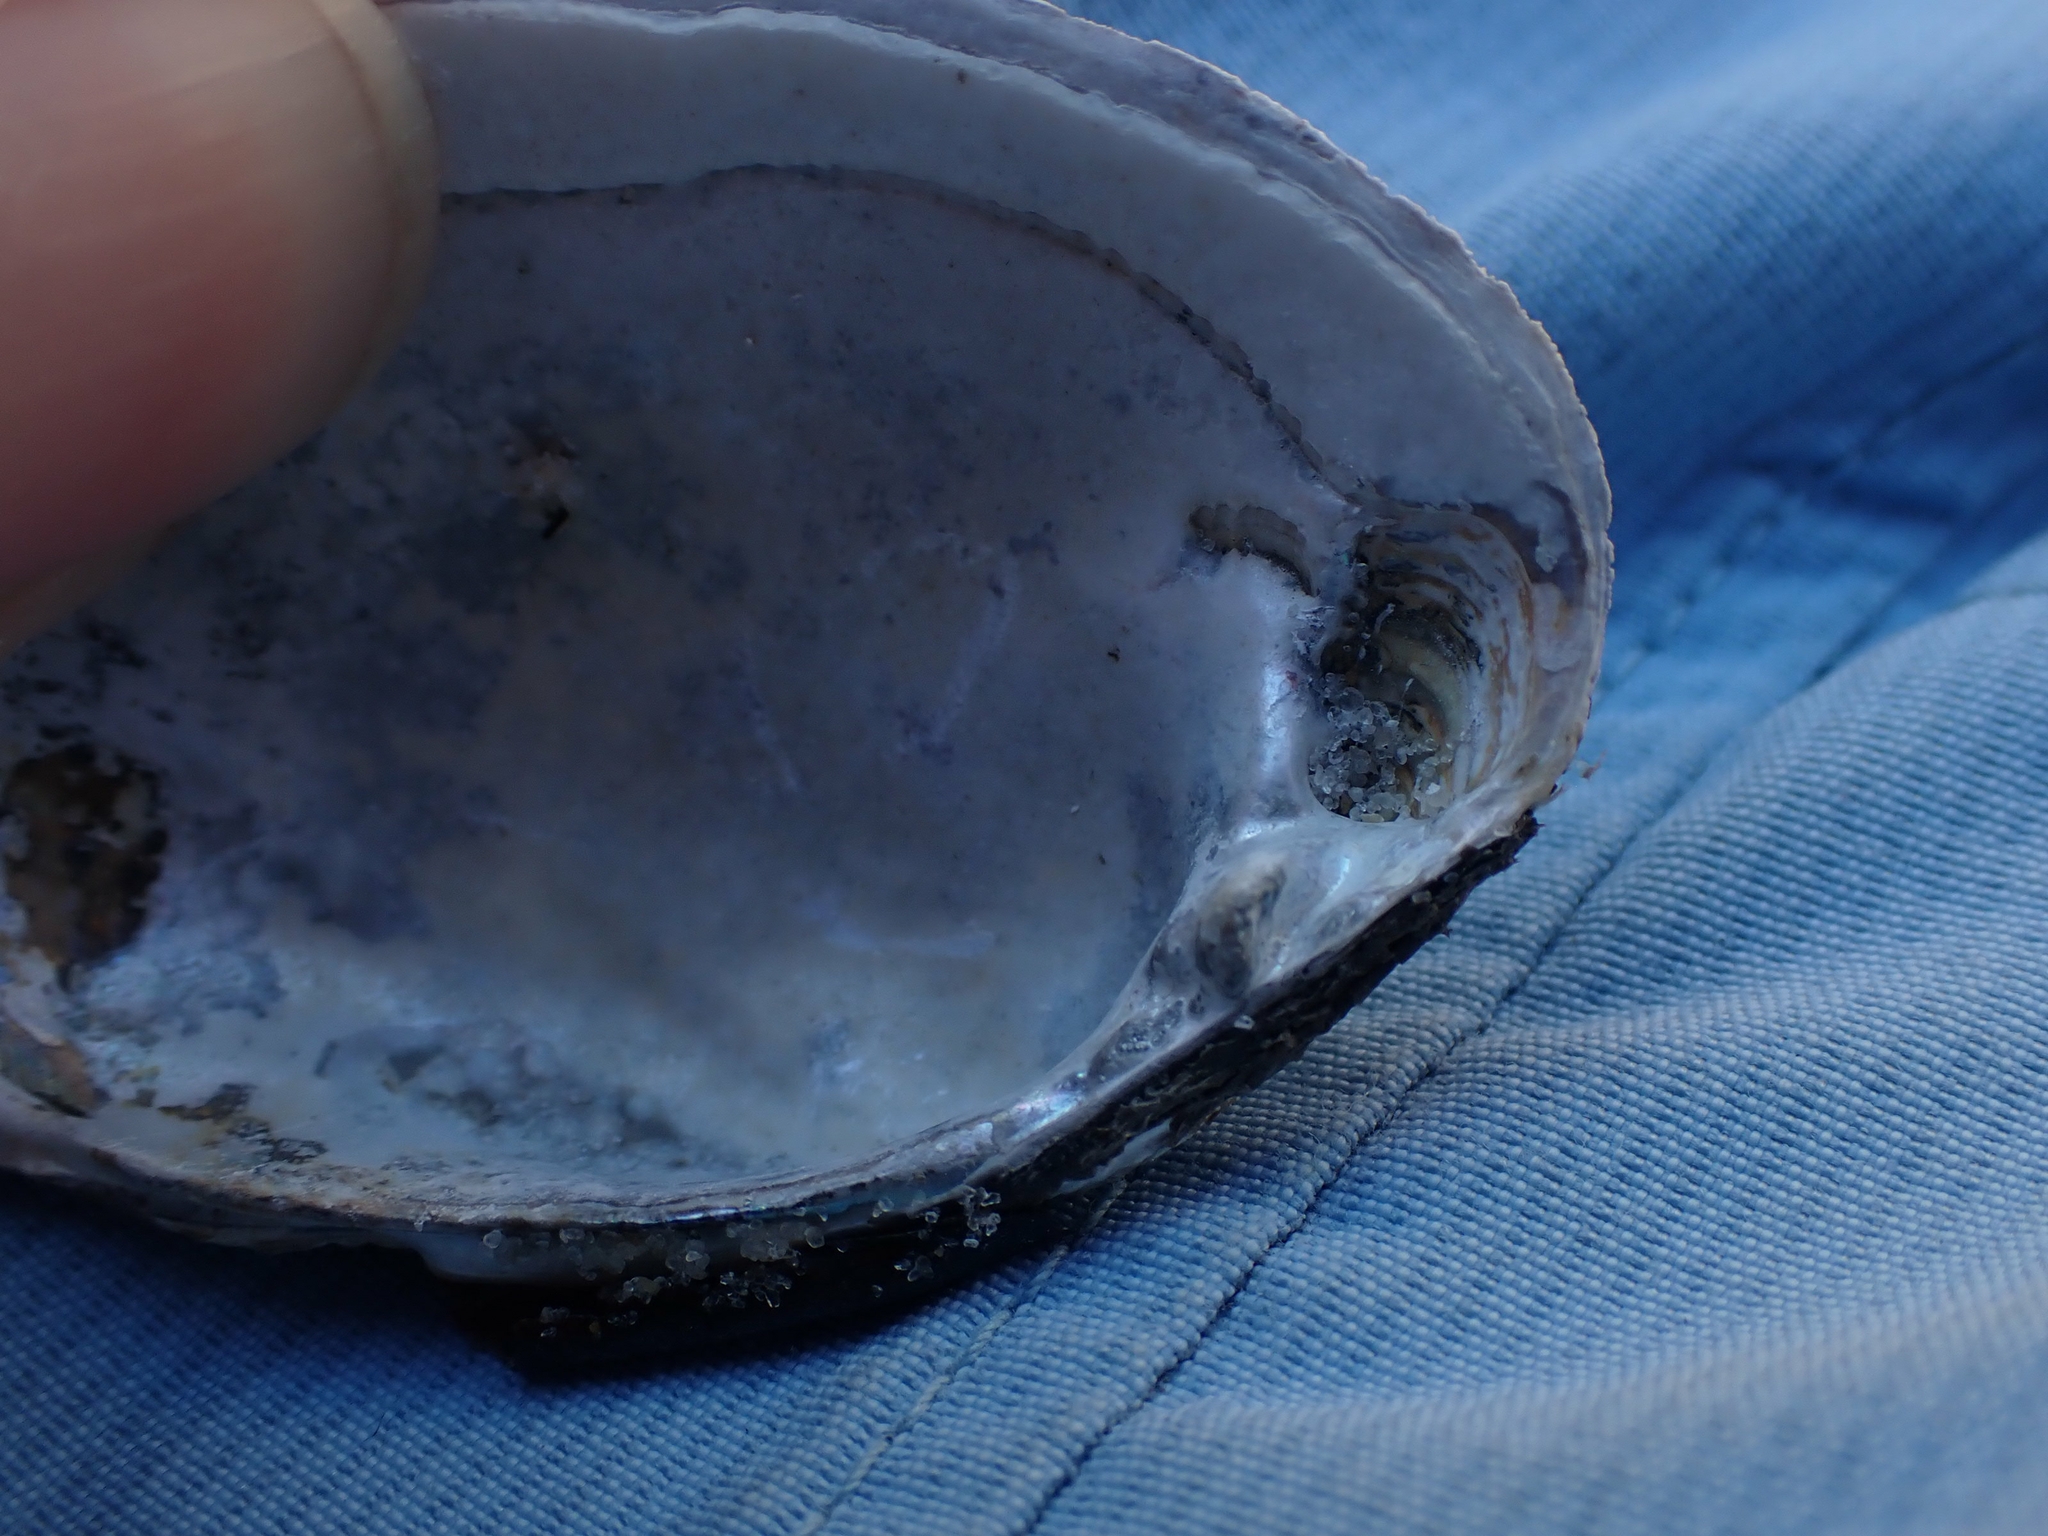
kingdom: Animalia
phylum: Mollusca
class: Bivalvia
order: Unionida
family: Unionidae
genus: Lampsilis
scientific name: Lampsilis siliquoidea
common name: Fatmucket
